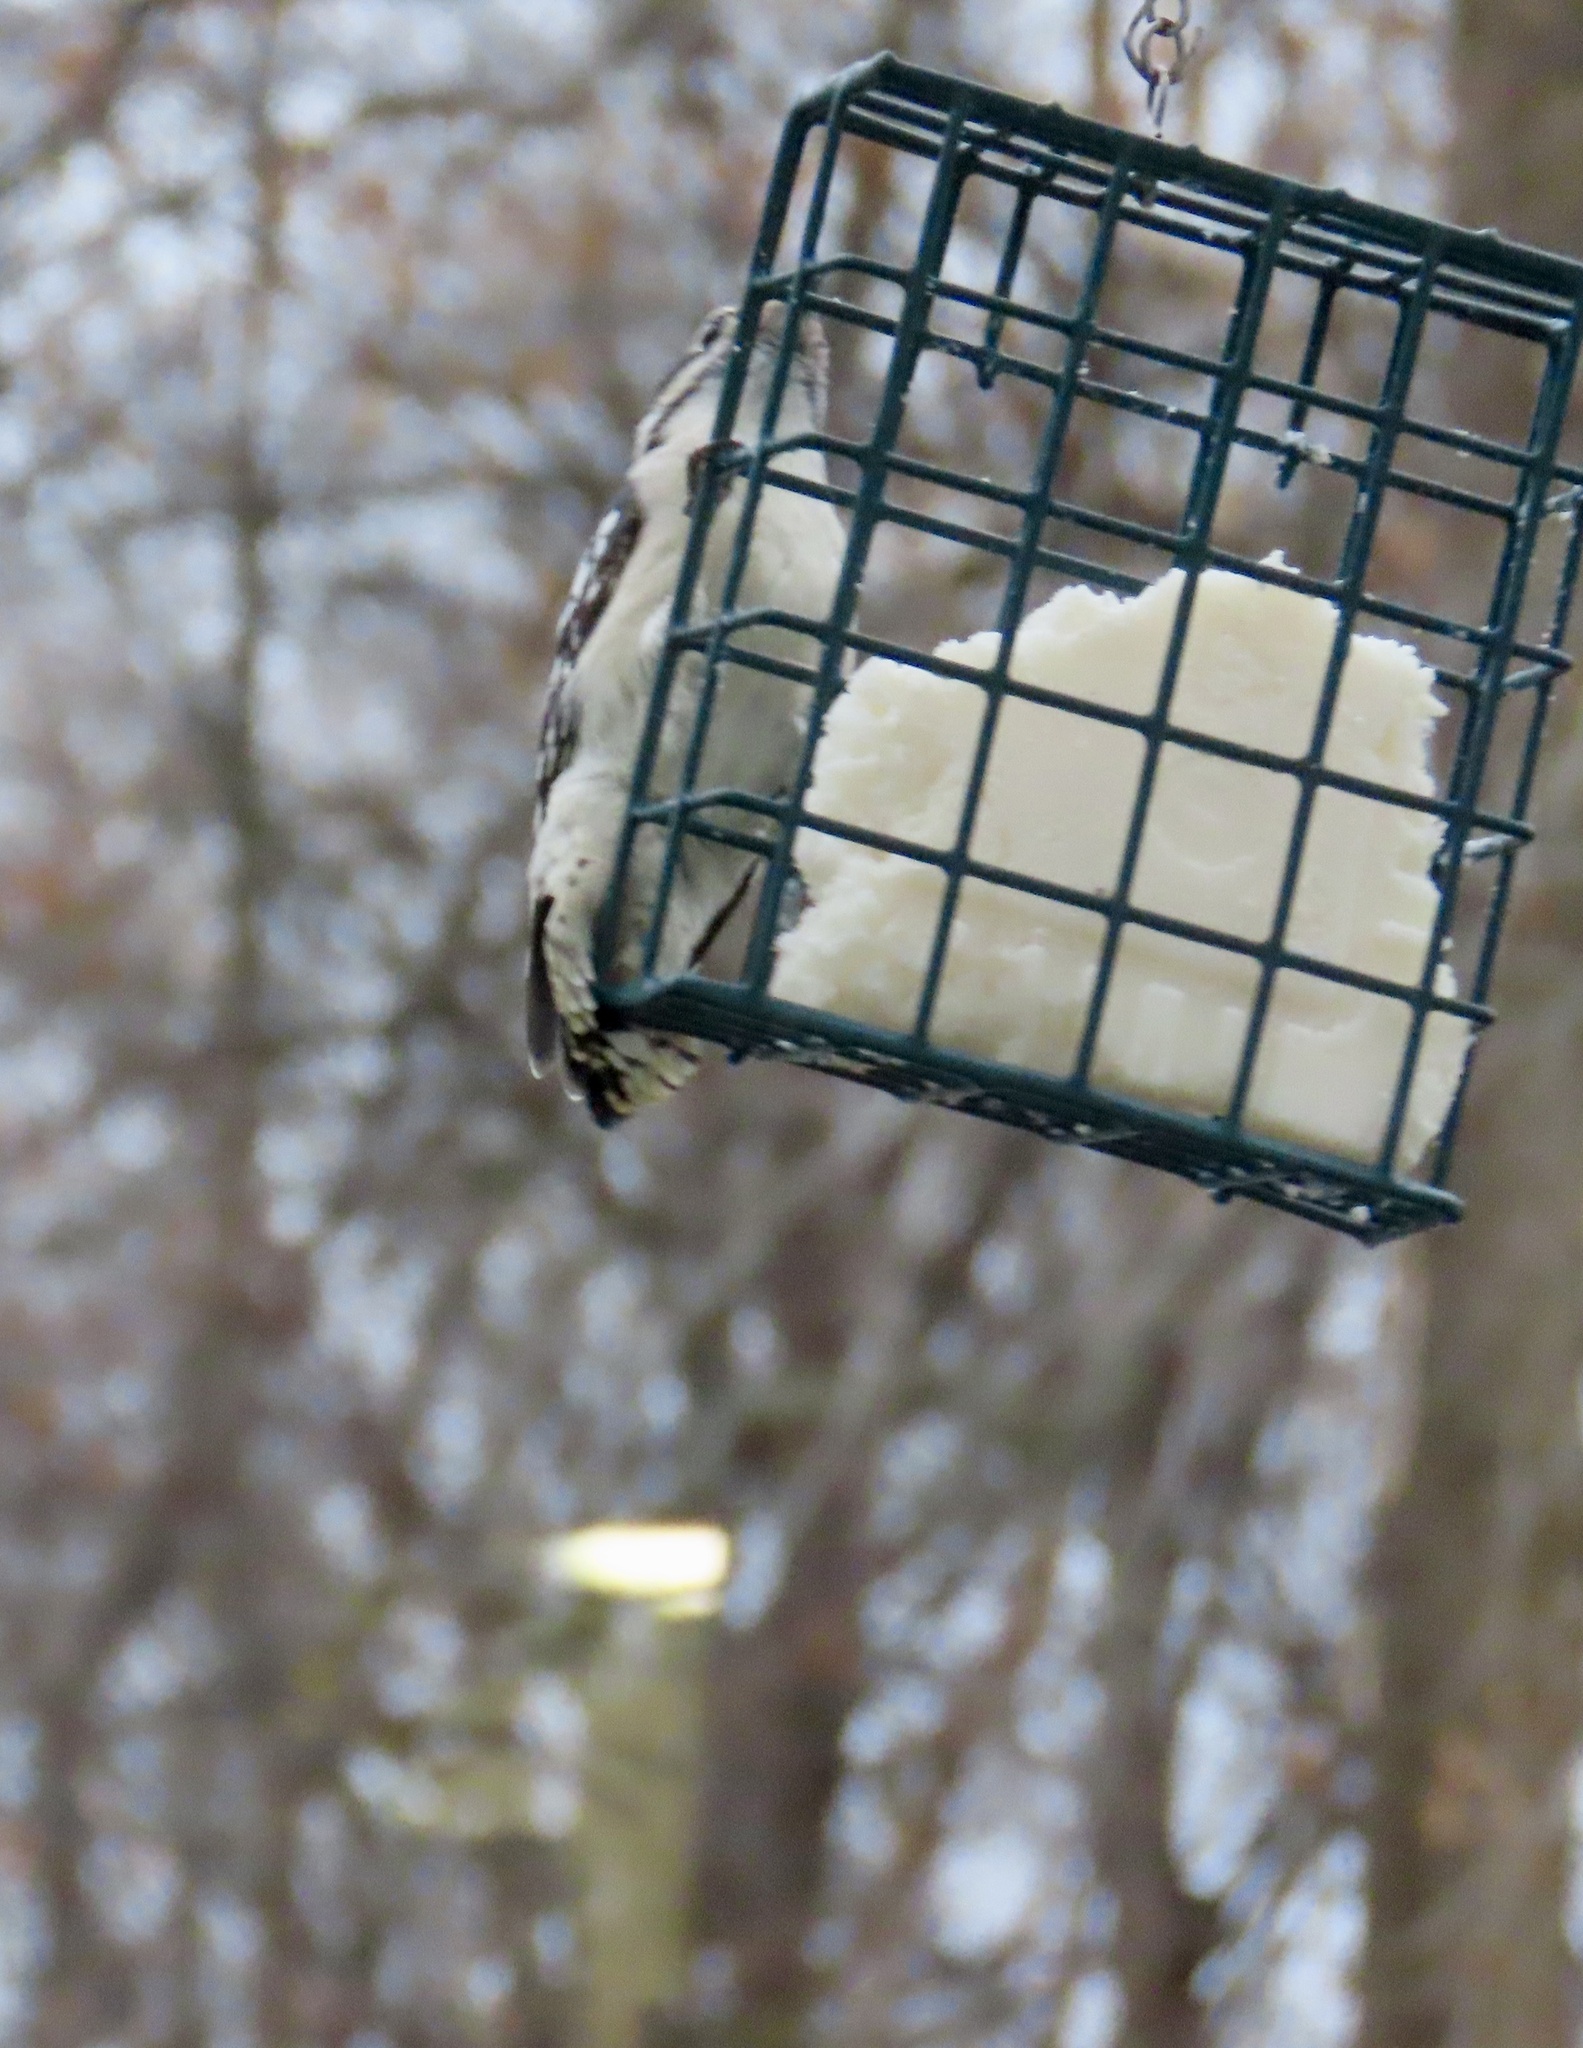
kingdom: Animalia
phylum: Chordata
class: Aves
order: Piciformes
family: Picidae
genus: Dryobates
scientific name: Dryobates pubescens
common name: Downy woodpecker
